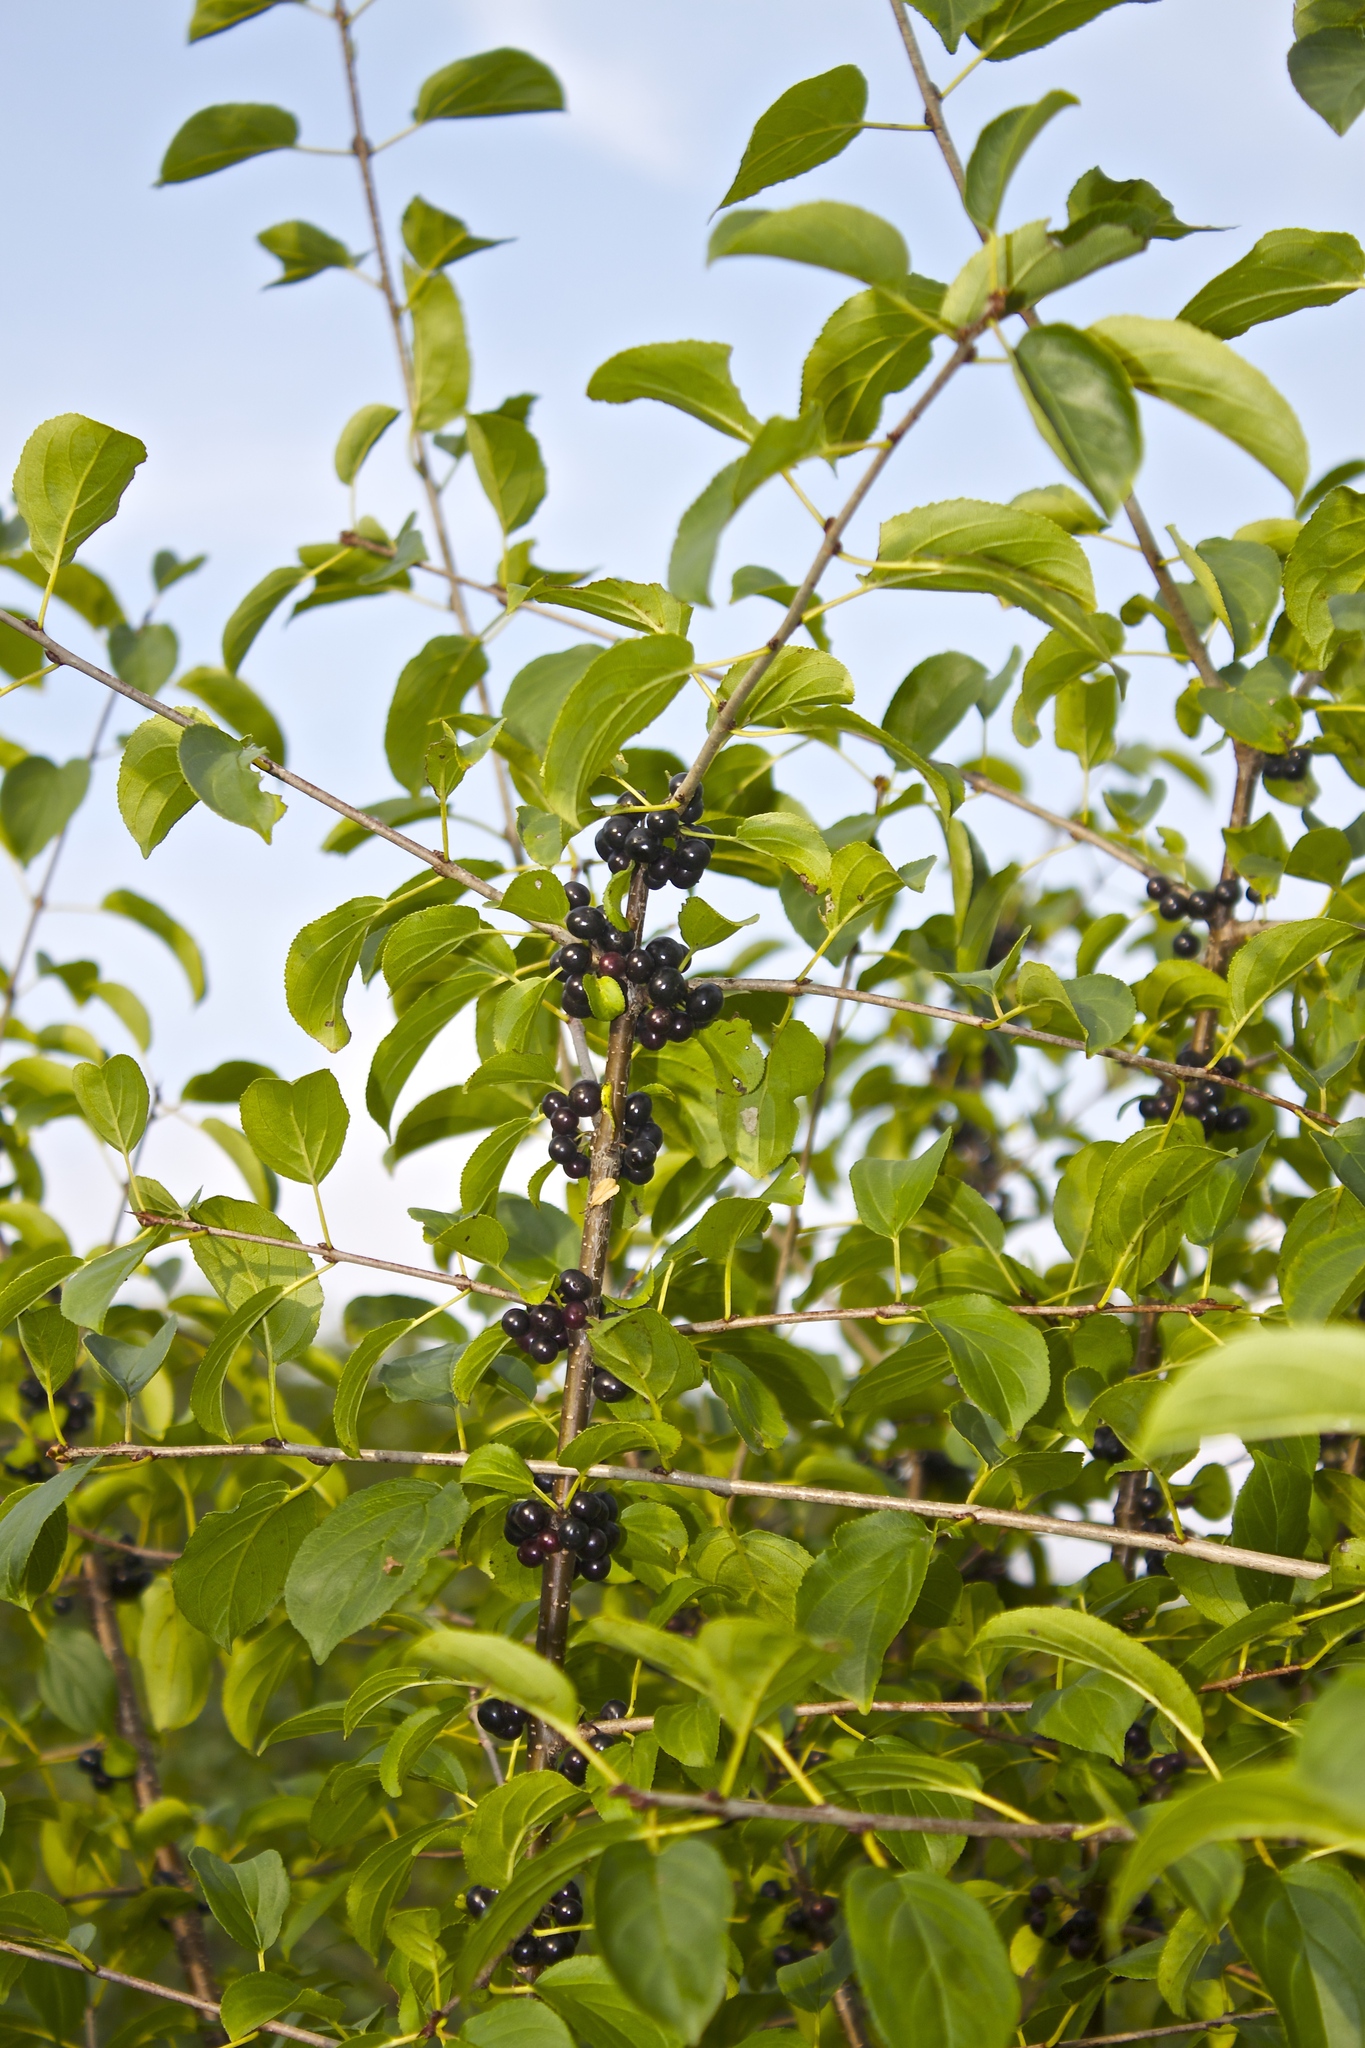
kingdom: Plantae
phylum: Tracheophyta
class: Magnoliopsida
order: Rosales
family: Rhamnaceae
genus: Rhamnus
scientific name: Rhamnus cathartica
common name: Common buckthorn
